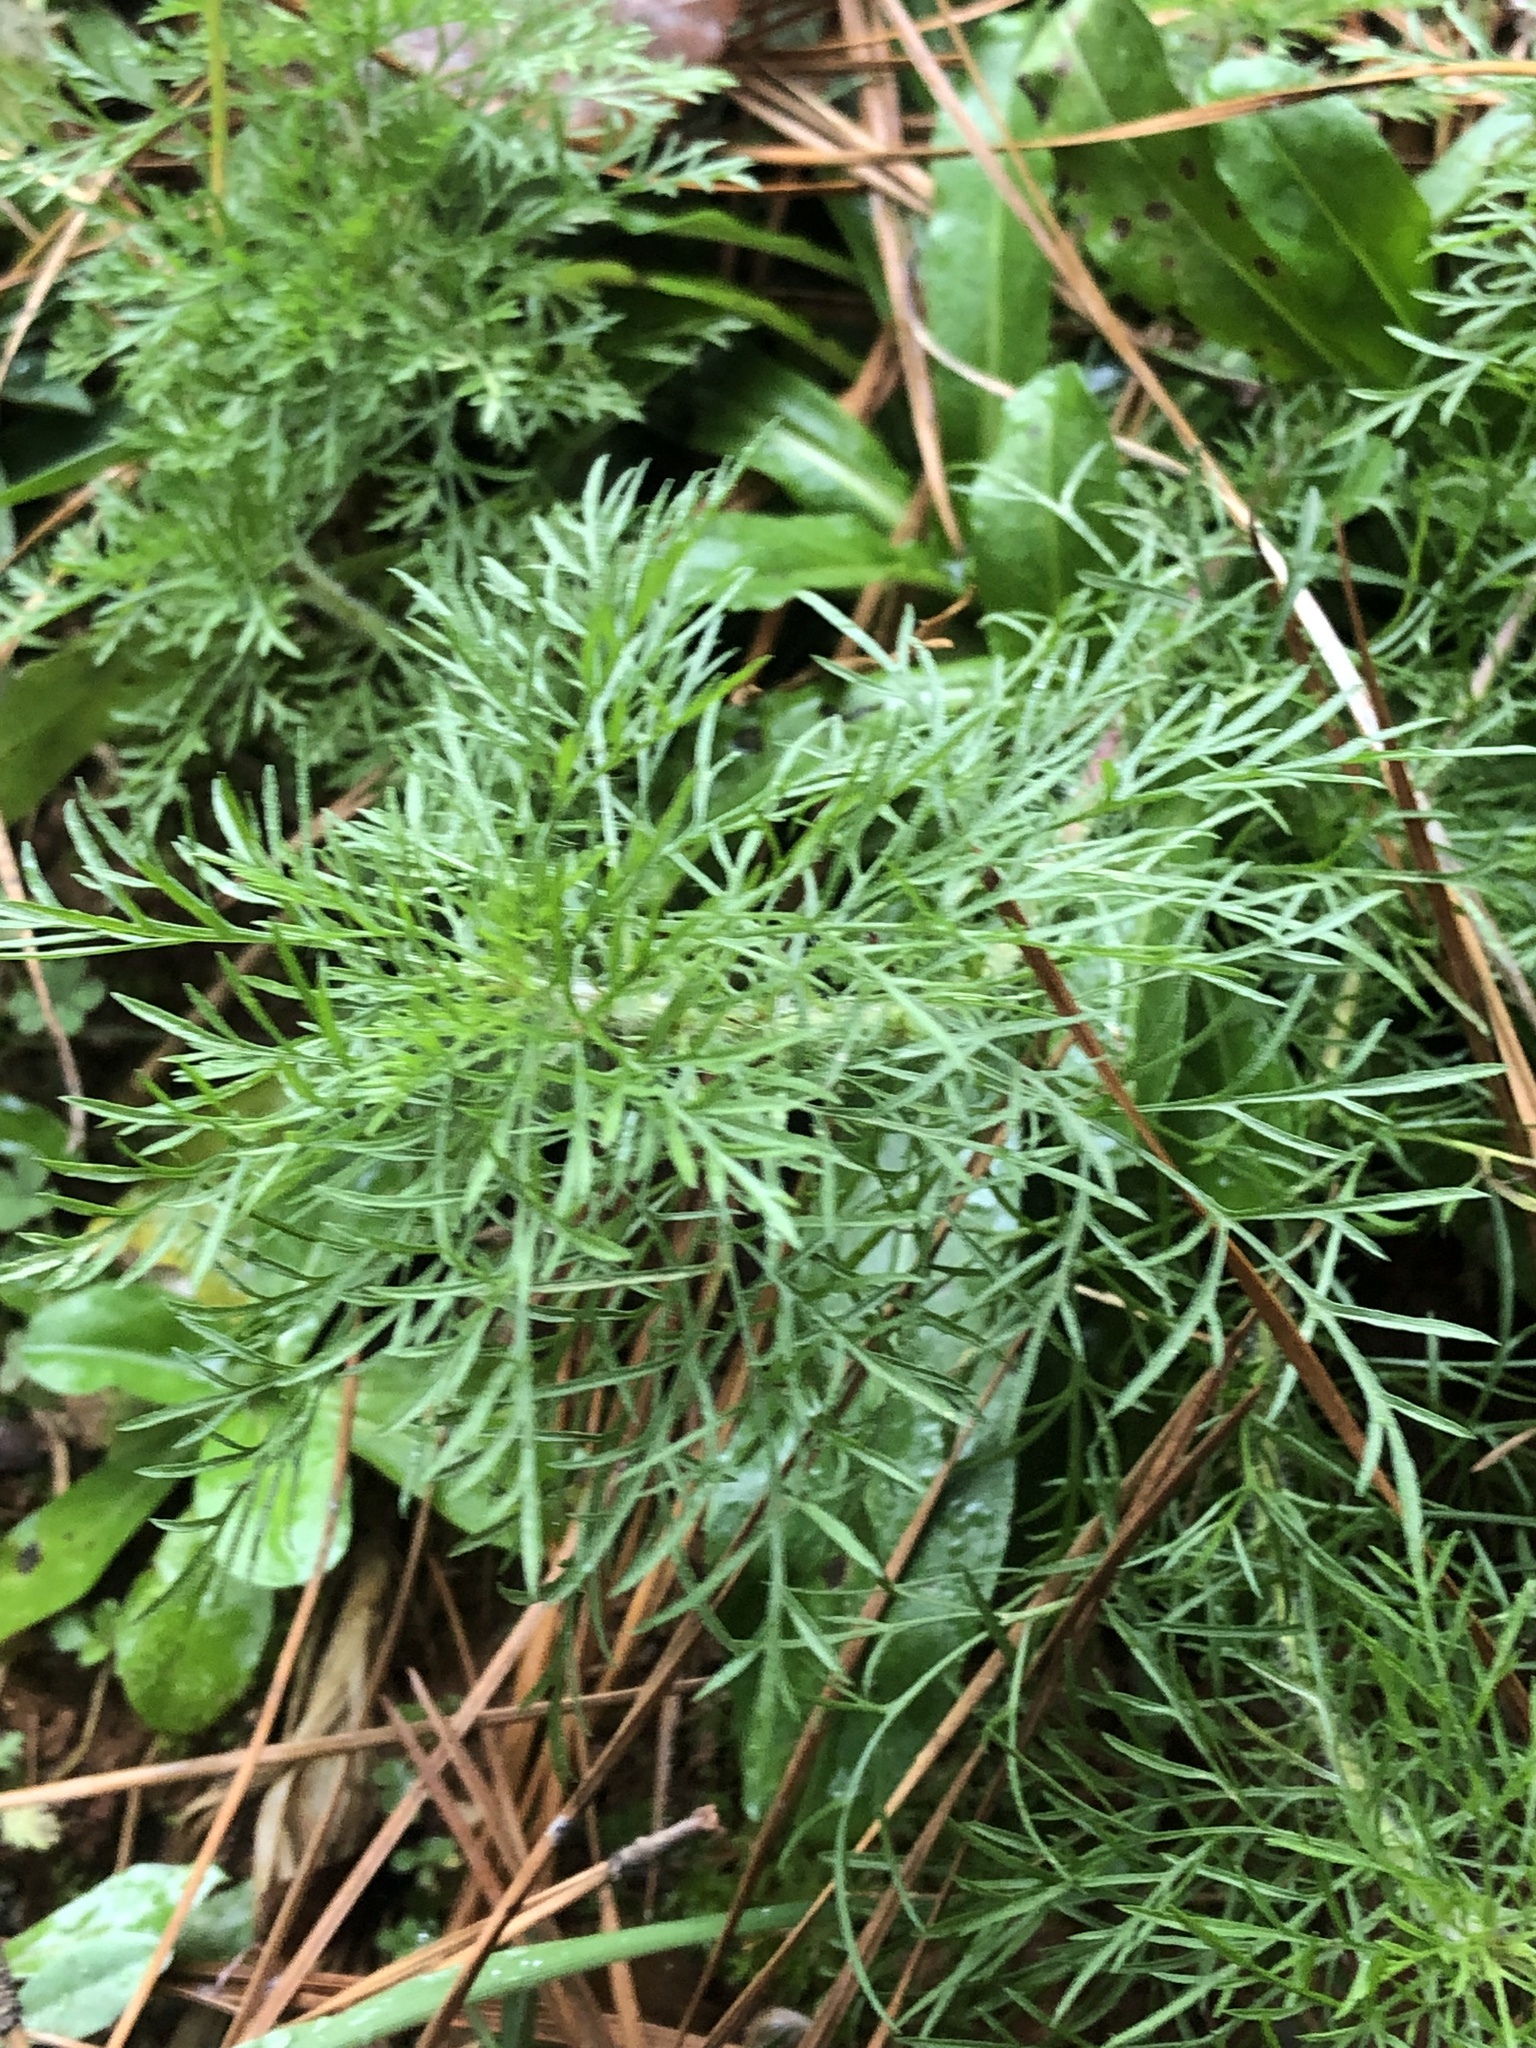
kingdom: Plantae
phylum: Tracheophyta
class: Magnoliopsida
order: Asterales
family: Asteraceae
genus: Eupatorium
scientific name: Eupatorium capillifolium
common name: Dog-fennel
